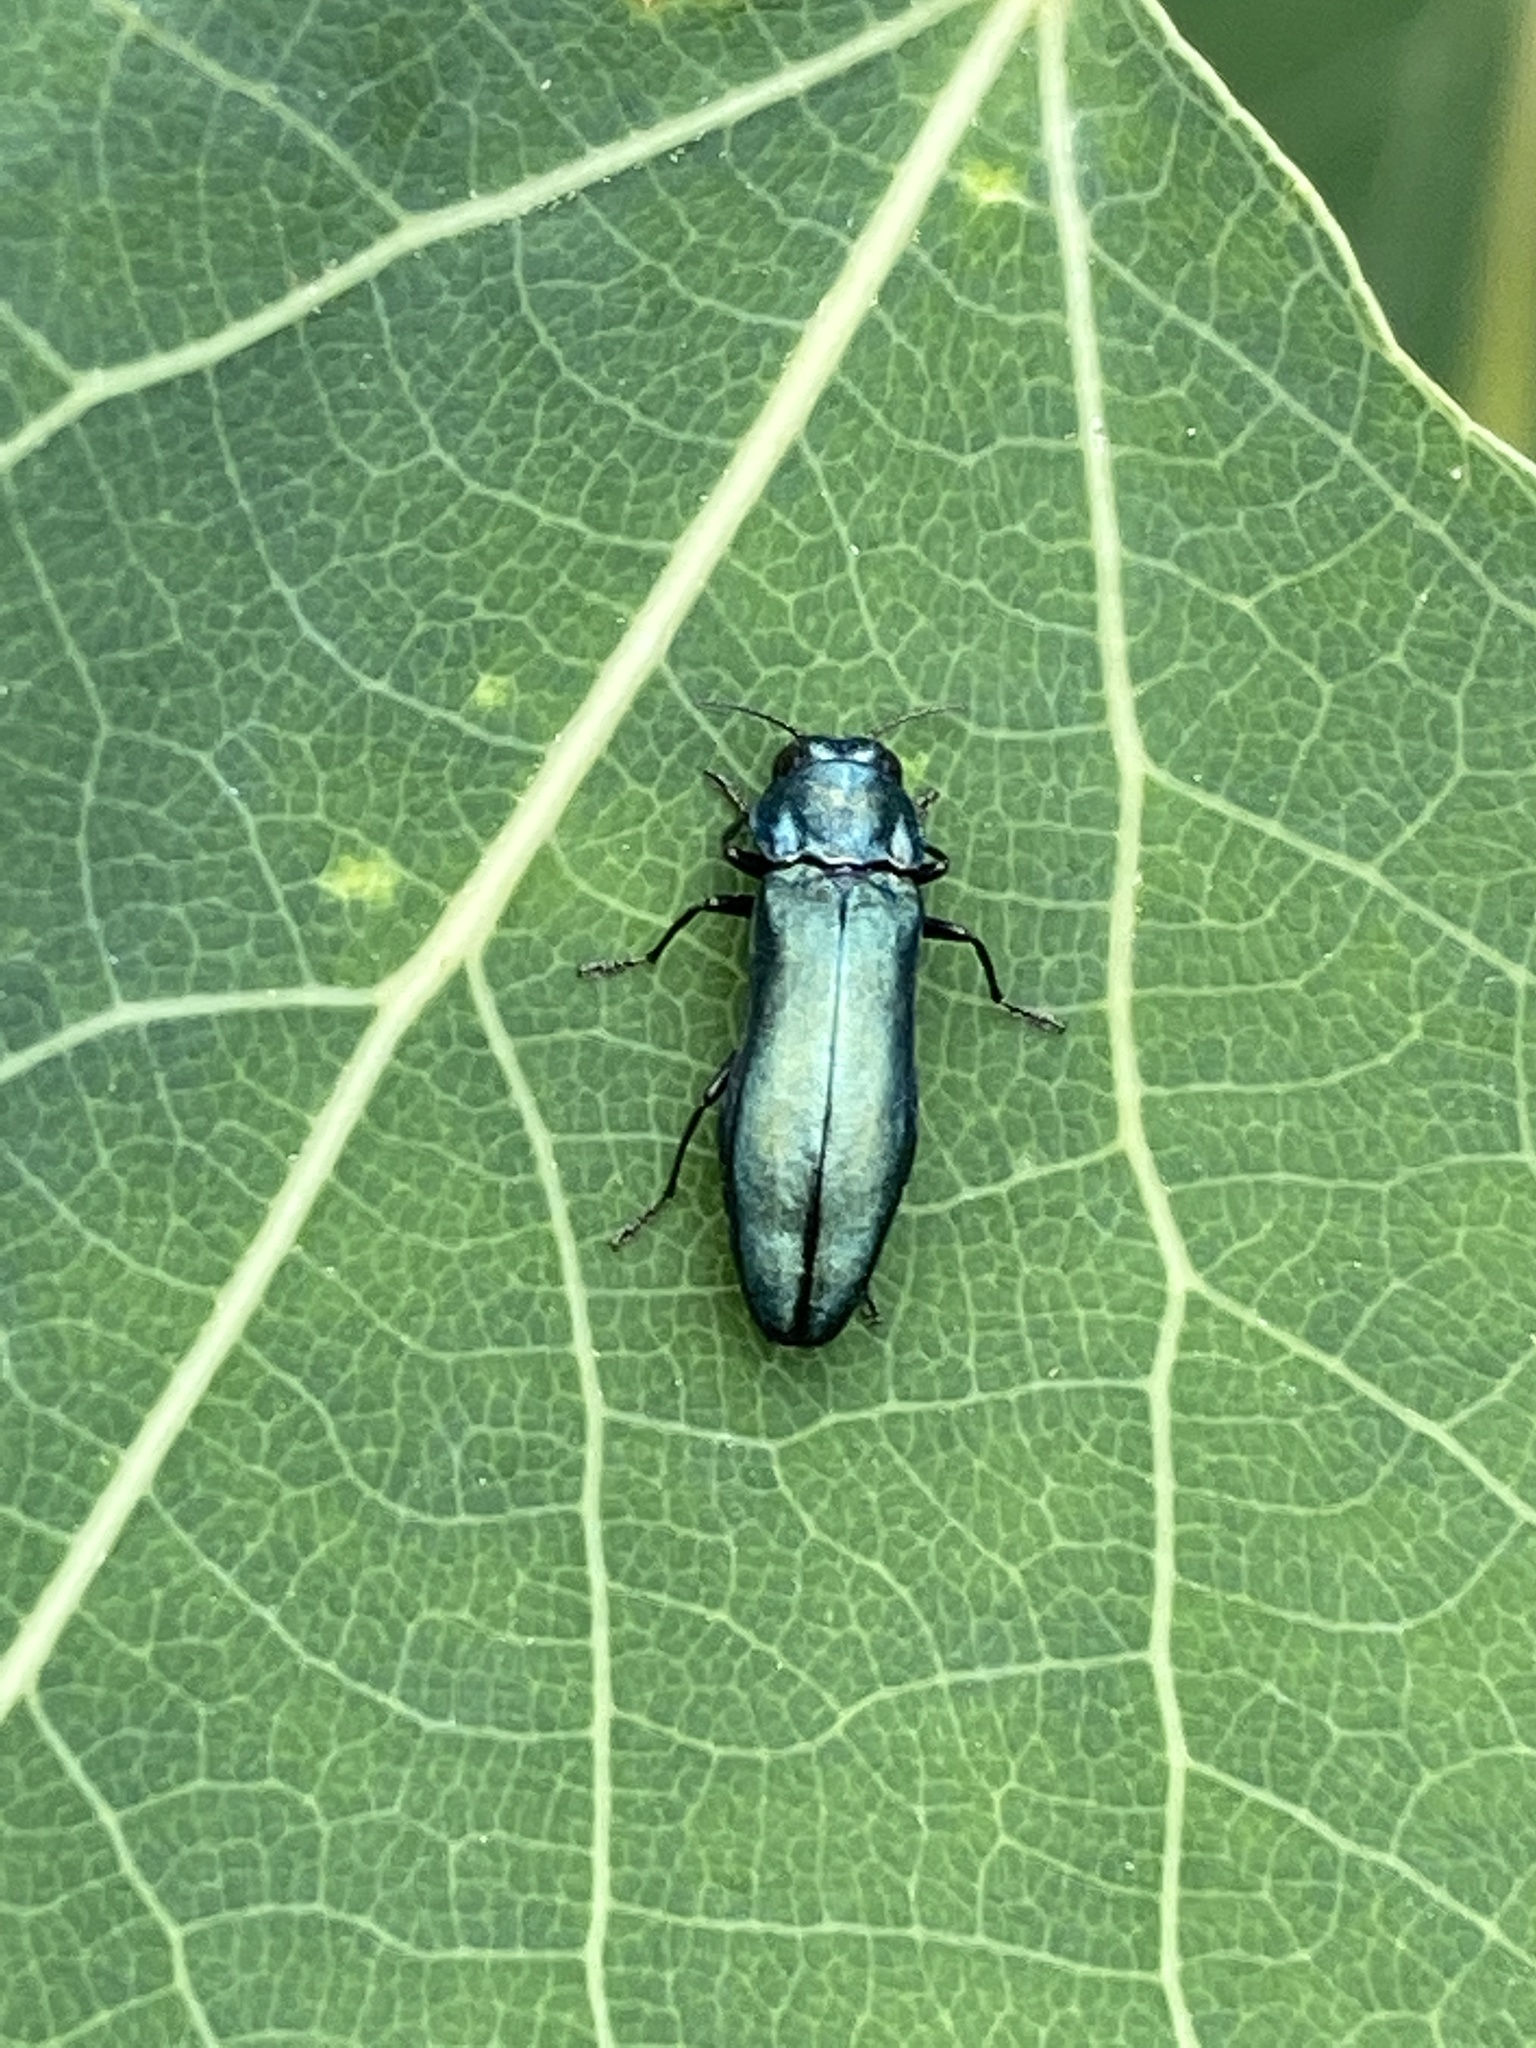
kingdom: Animalia
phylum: Arthropoda
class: Insecta
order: Coleoptera
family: Buprestidae
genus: Agrilus
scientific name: Agrilus cyanescens
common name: Bluish borer beetle
